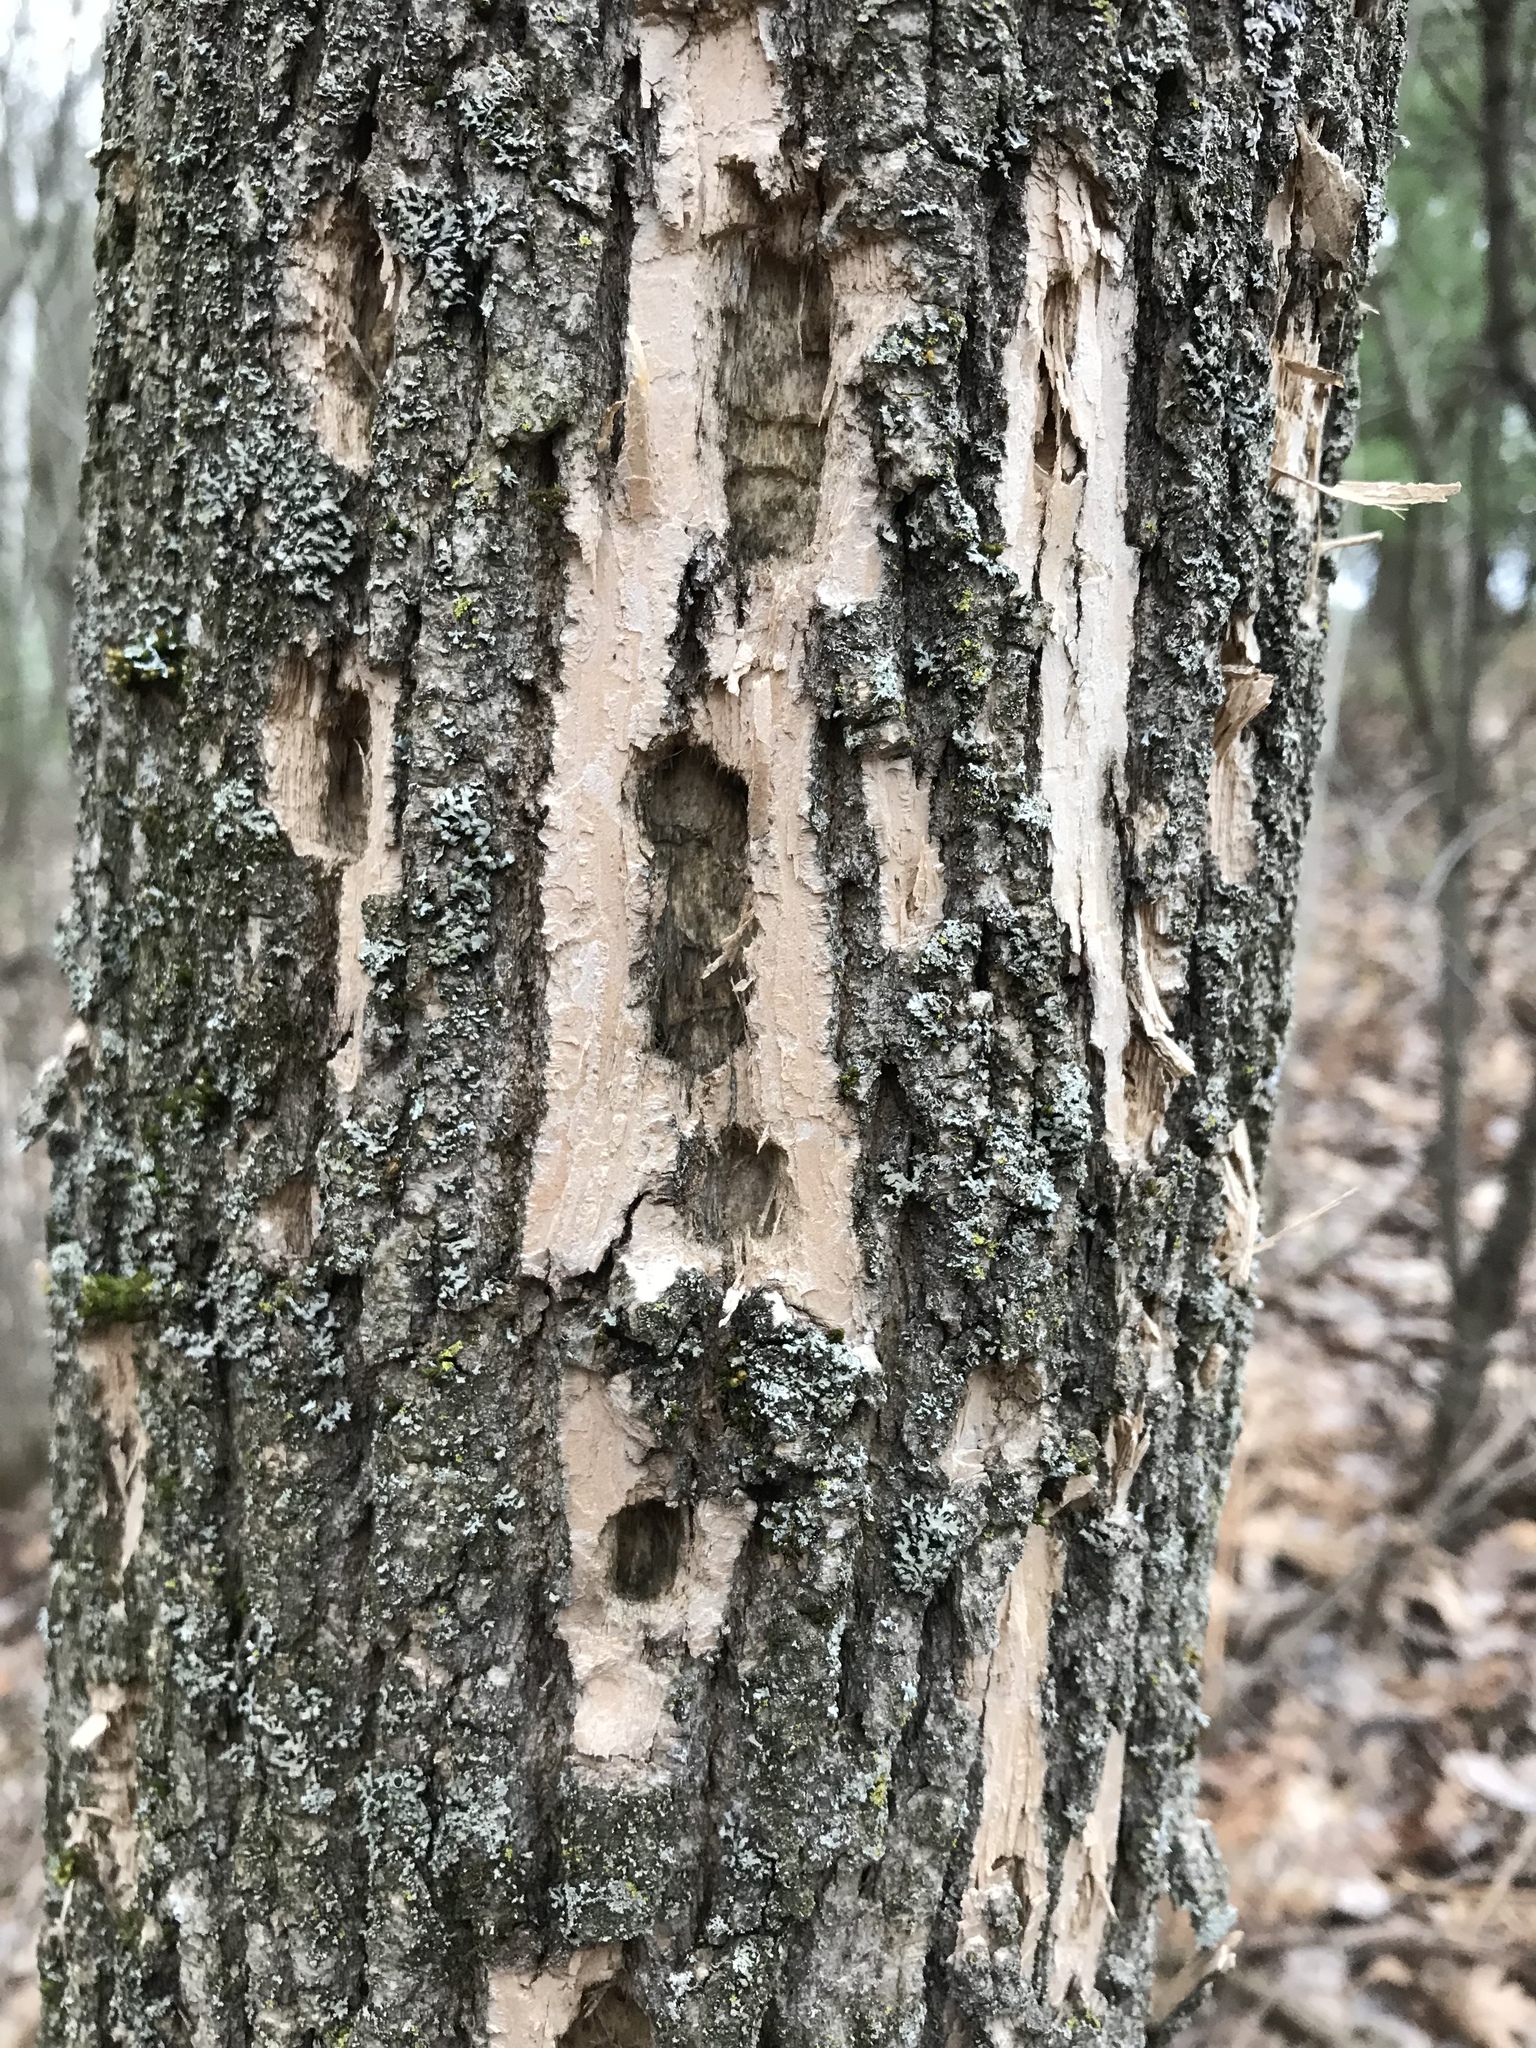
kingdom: Animalia
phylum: Arthropoda
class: Insecta
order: Coleoptera
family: Buprestidae
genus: Agrilus
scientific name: Agrilus planipennis
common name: Emerald ash borer
